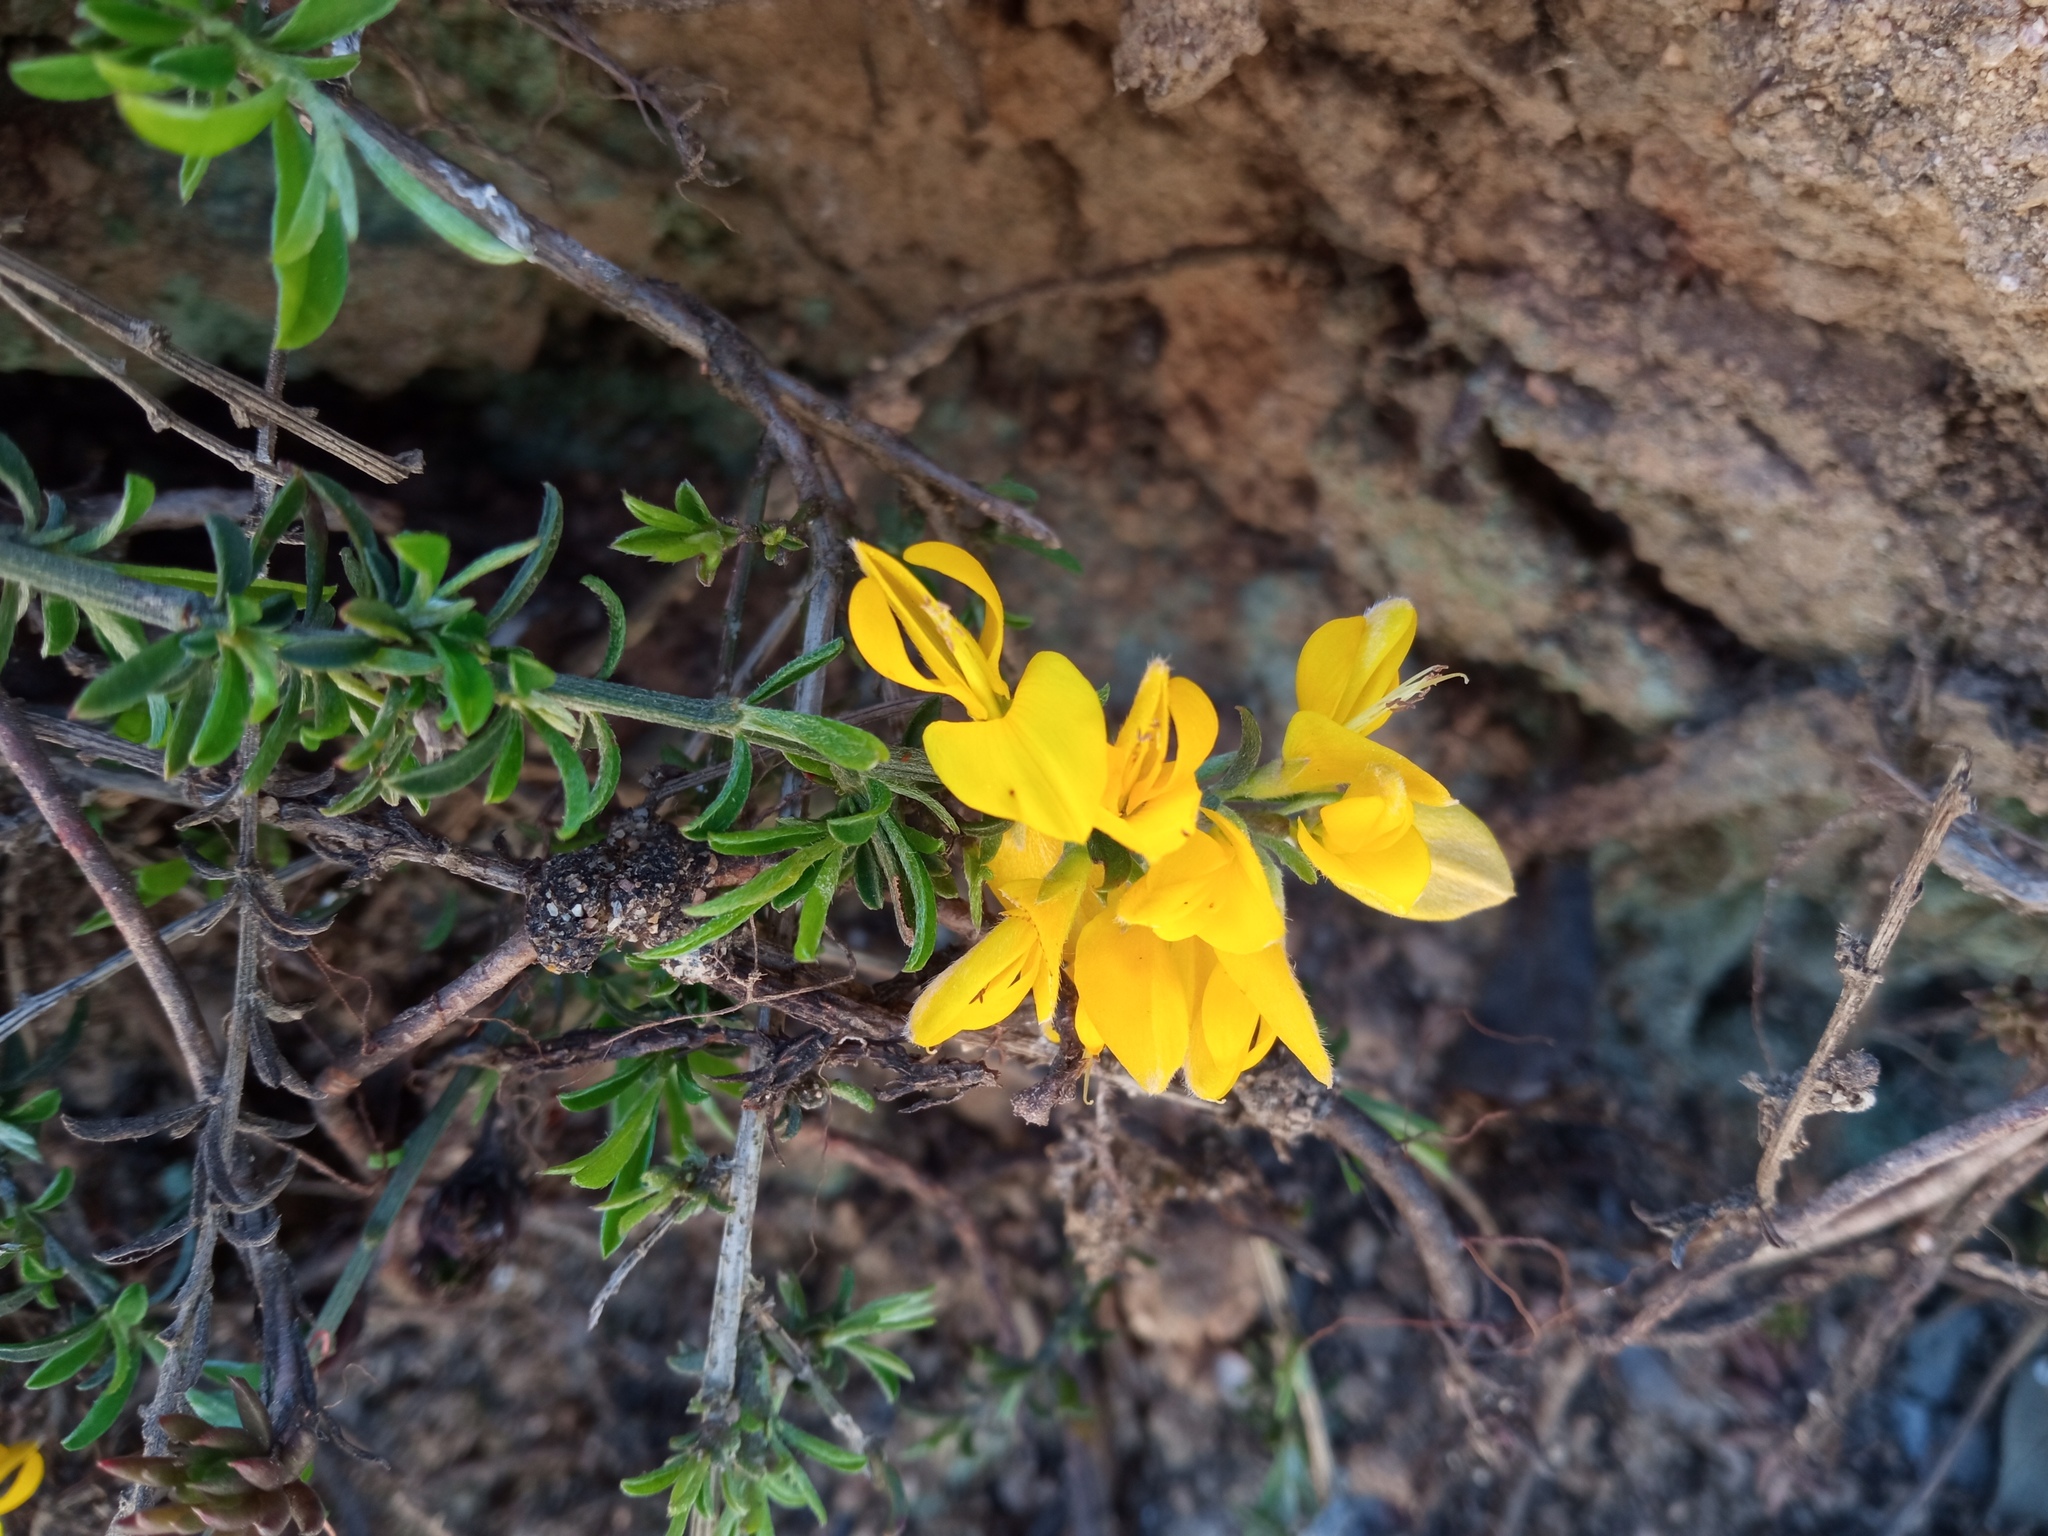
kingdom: Plantae
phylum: Tracheophyta
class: Magnoliopsida
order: Fabales
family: Fabaceae
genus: Genista
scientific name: Genista pilosa
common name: Hairy greenweed
